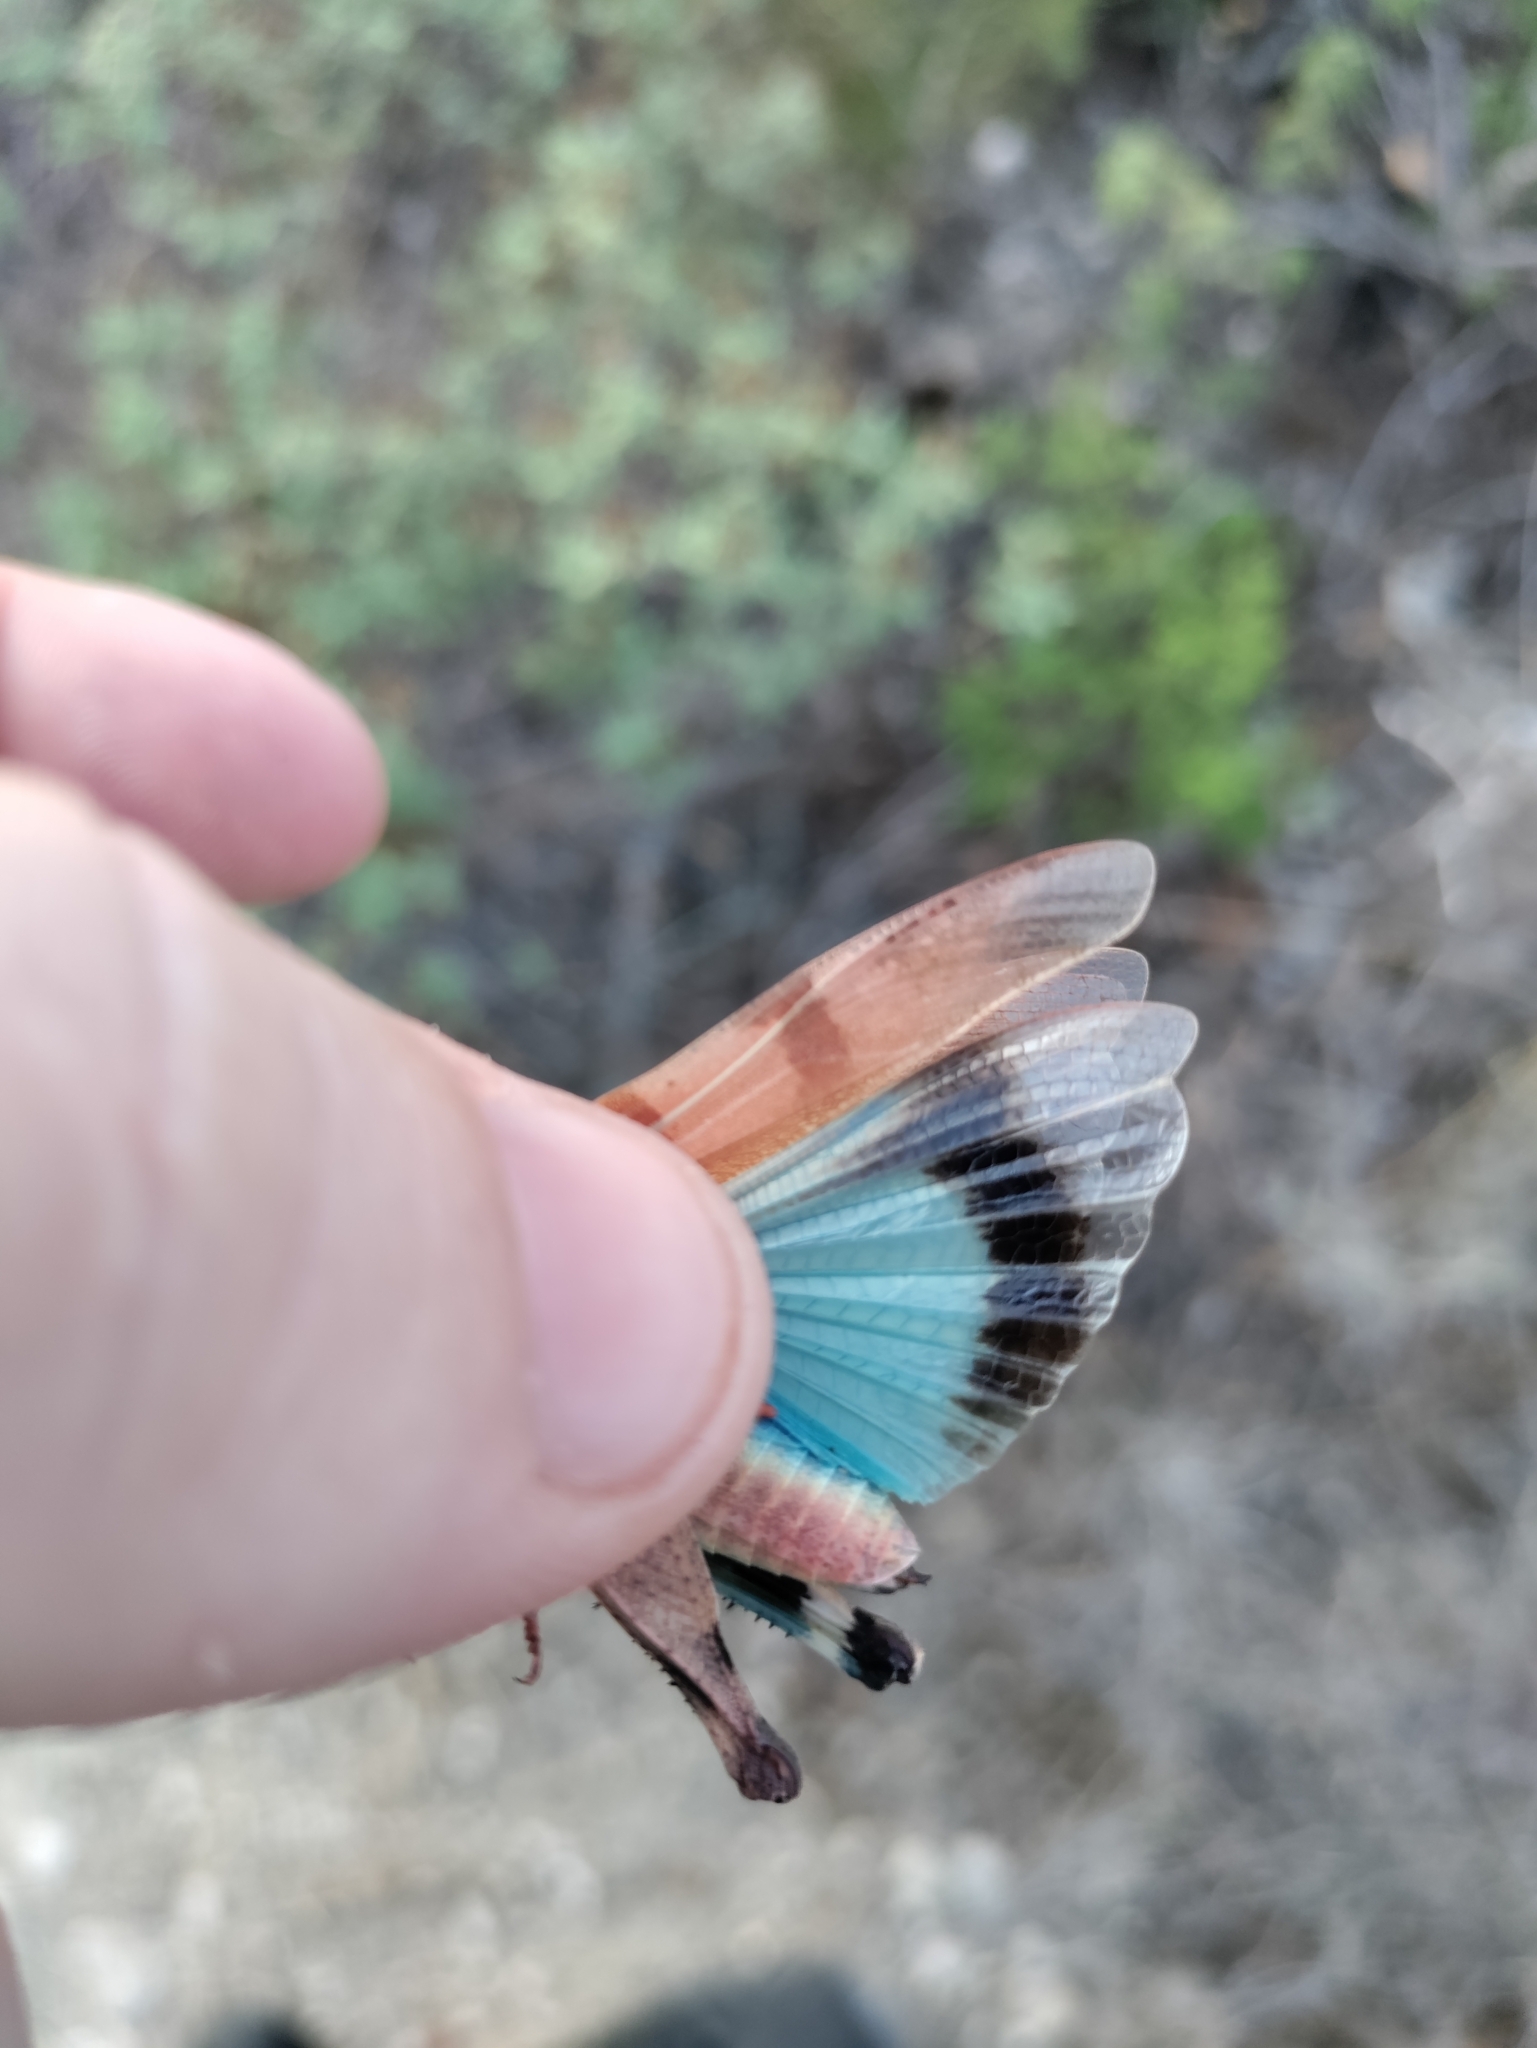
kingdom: Animalia
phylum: Arthropoda
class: Insecta
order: Orthoptera
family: Acrididae
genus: Oedipoda
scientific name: Oedipoda caerulescens
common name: Blue-winged grasshopper
